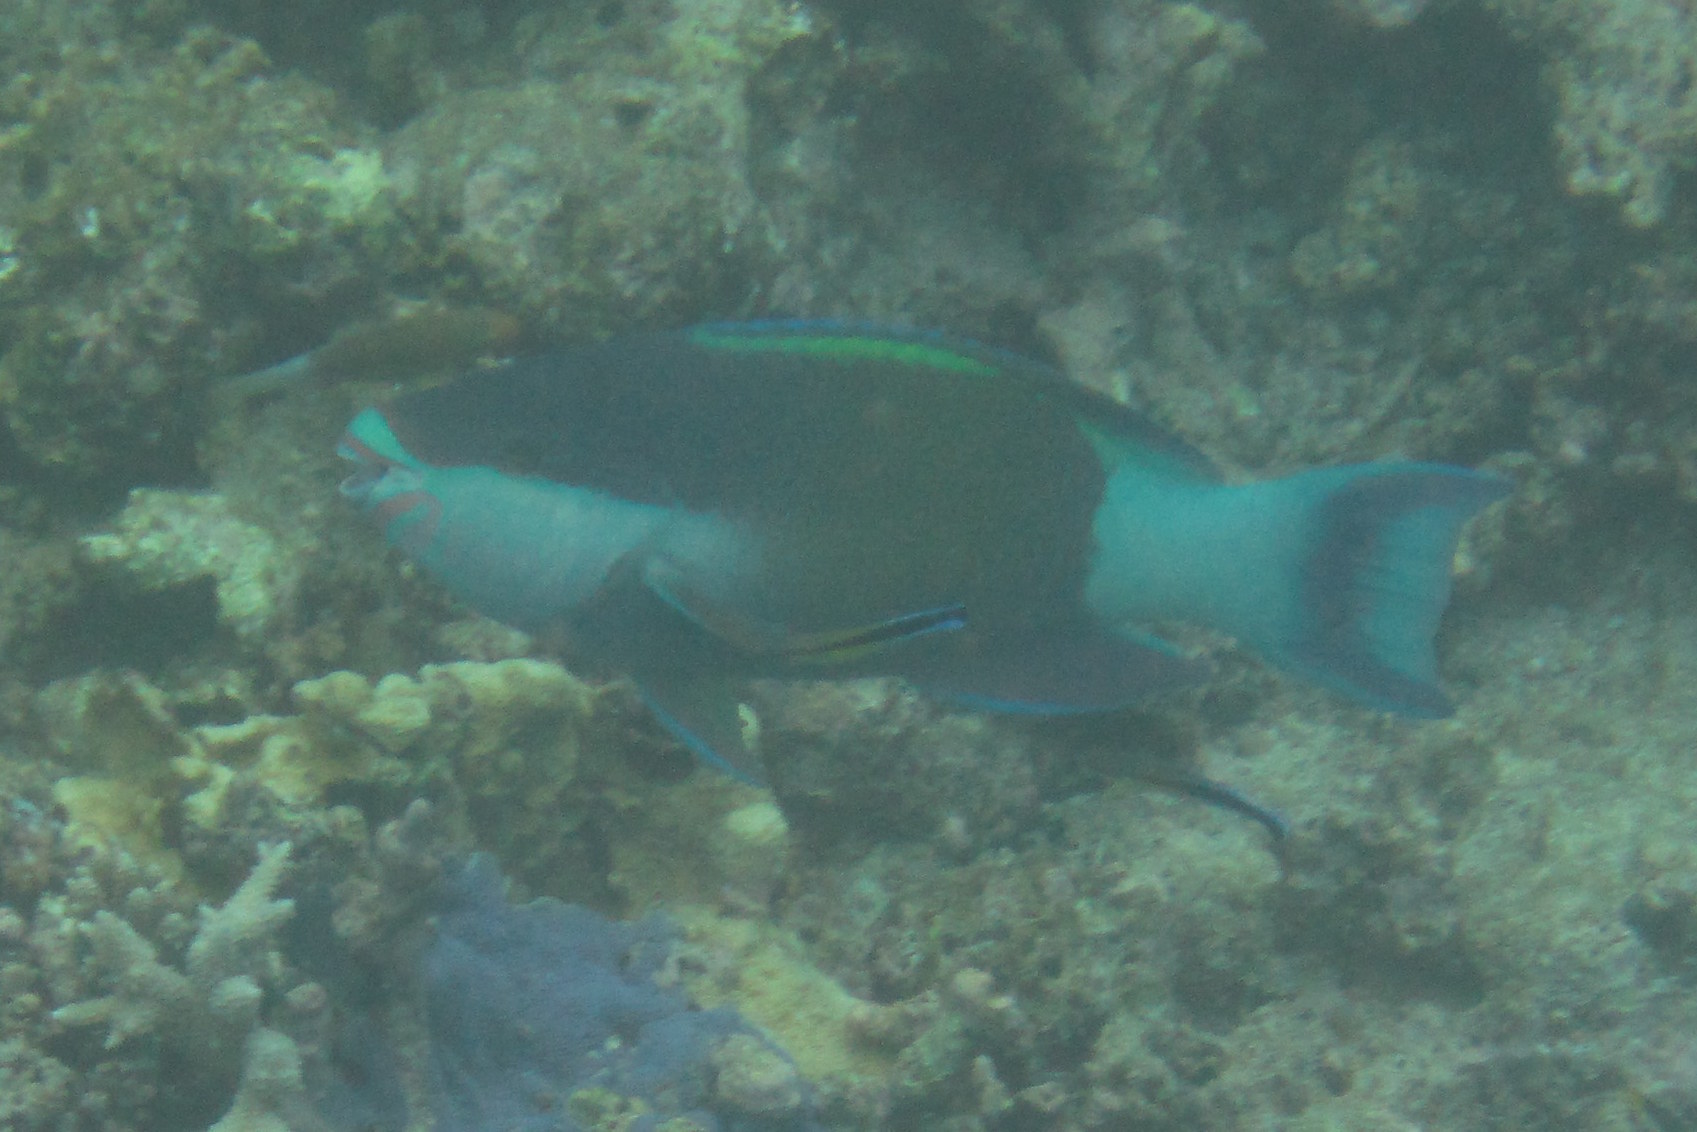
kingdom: Animalia
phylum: Chordata
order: Perciformes
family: Scaridae
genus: Scarus
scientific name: Scarus frenatus
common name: Bridled parrotfish
